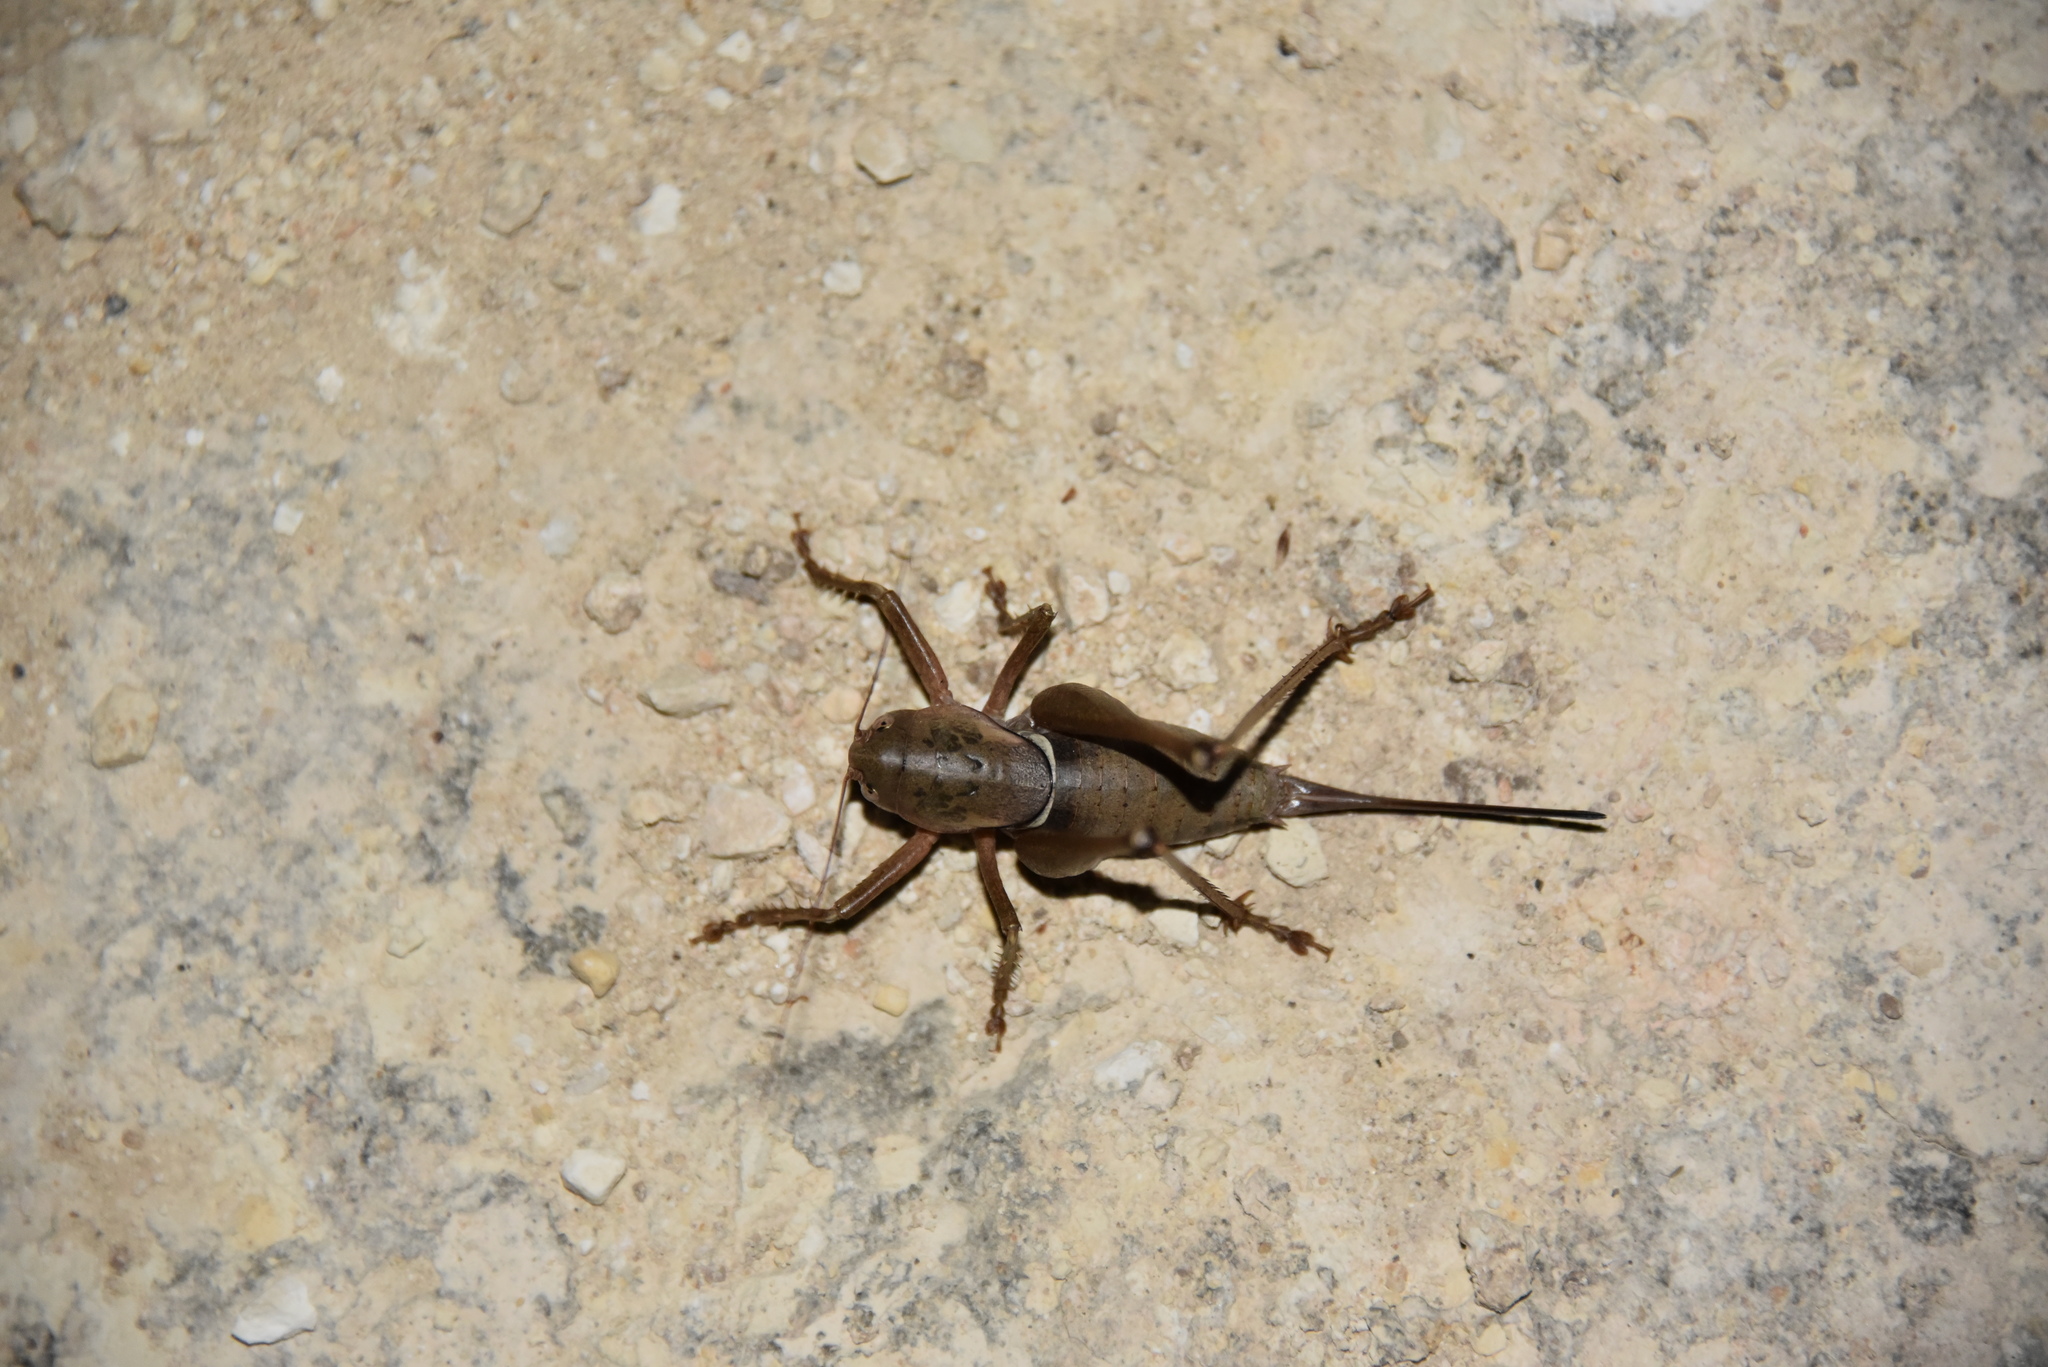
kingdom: Animalia
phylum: Arthropoda
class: Insecta
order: Orthoptera
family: Tettigoniidae
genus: Pediodectes
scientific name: Pediodectes haldemanii
